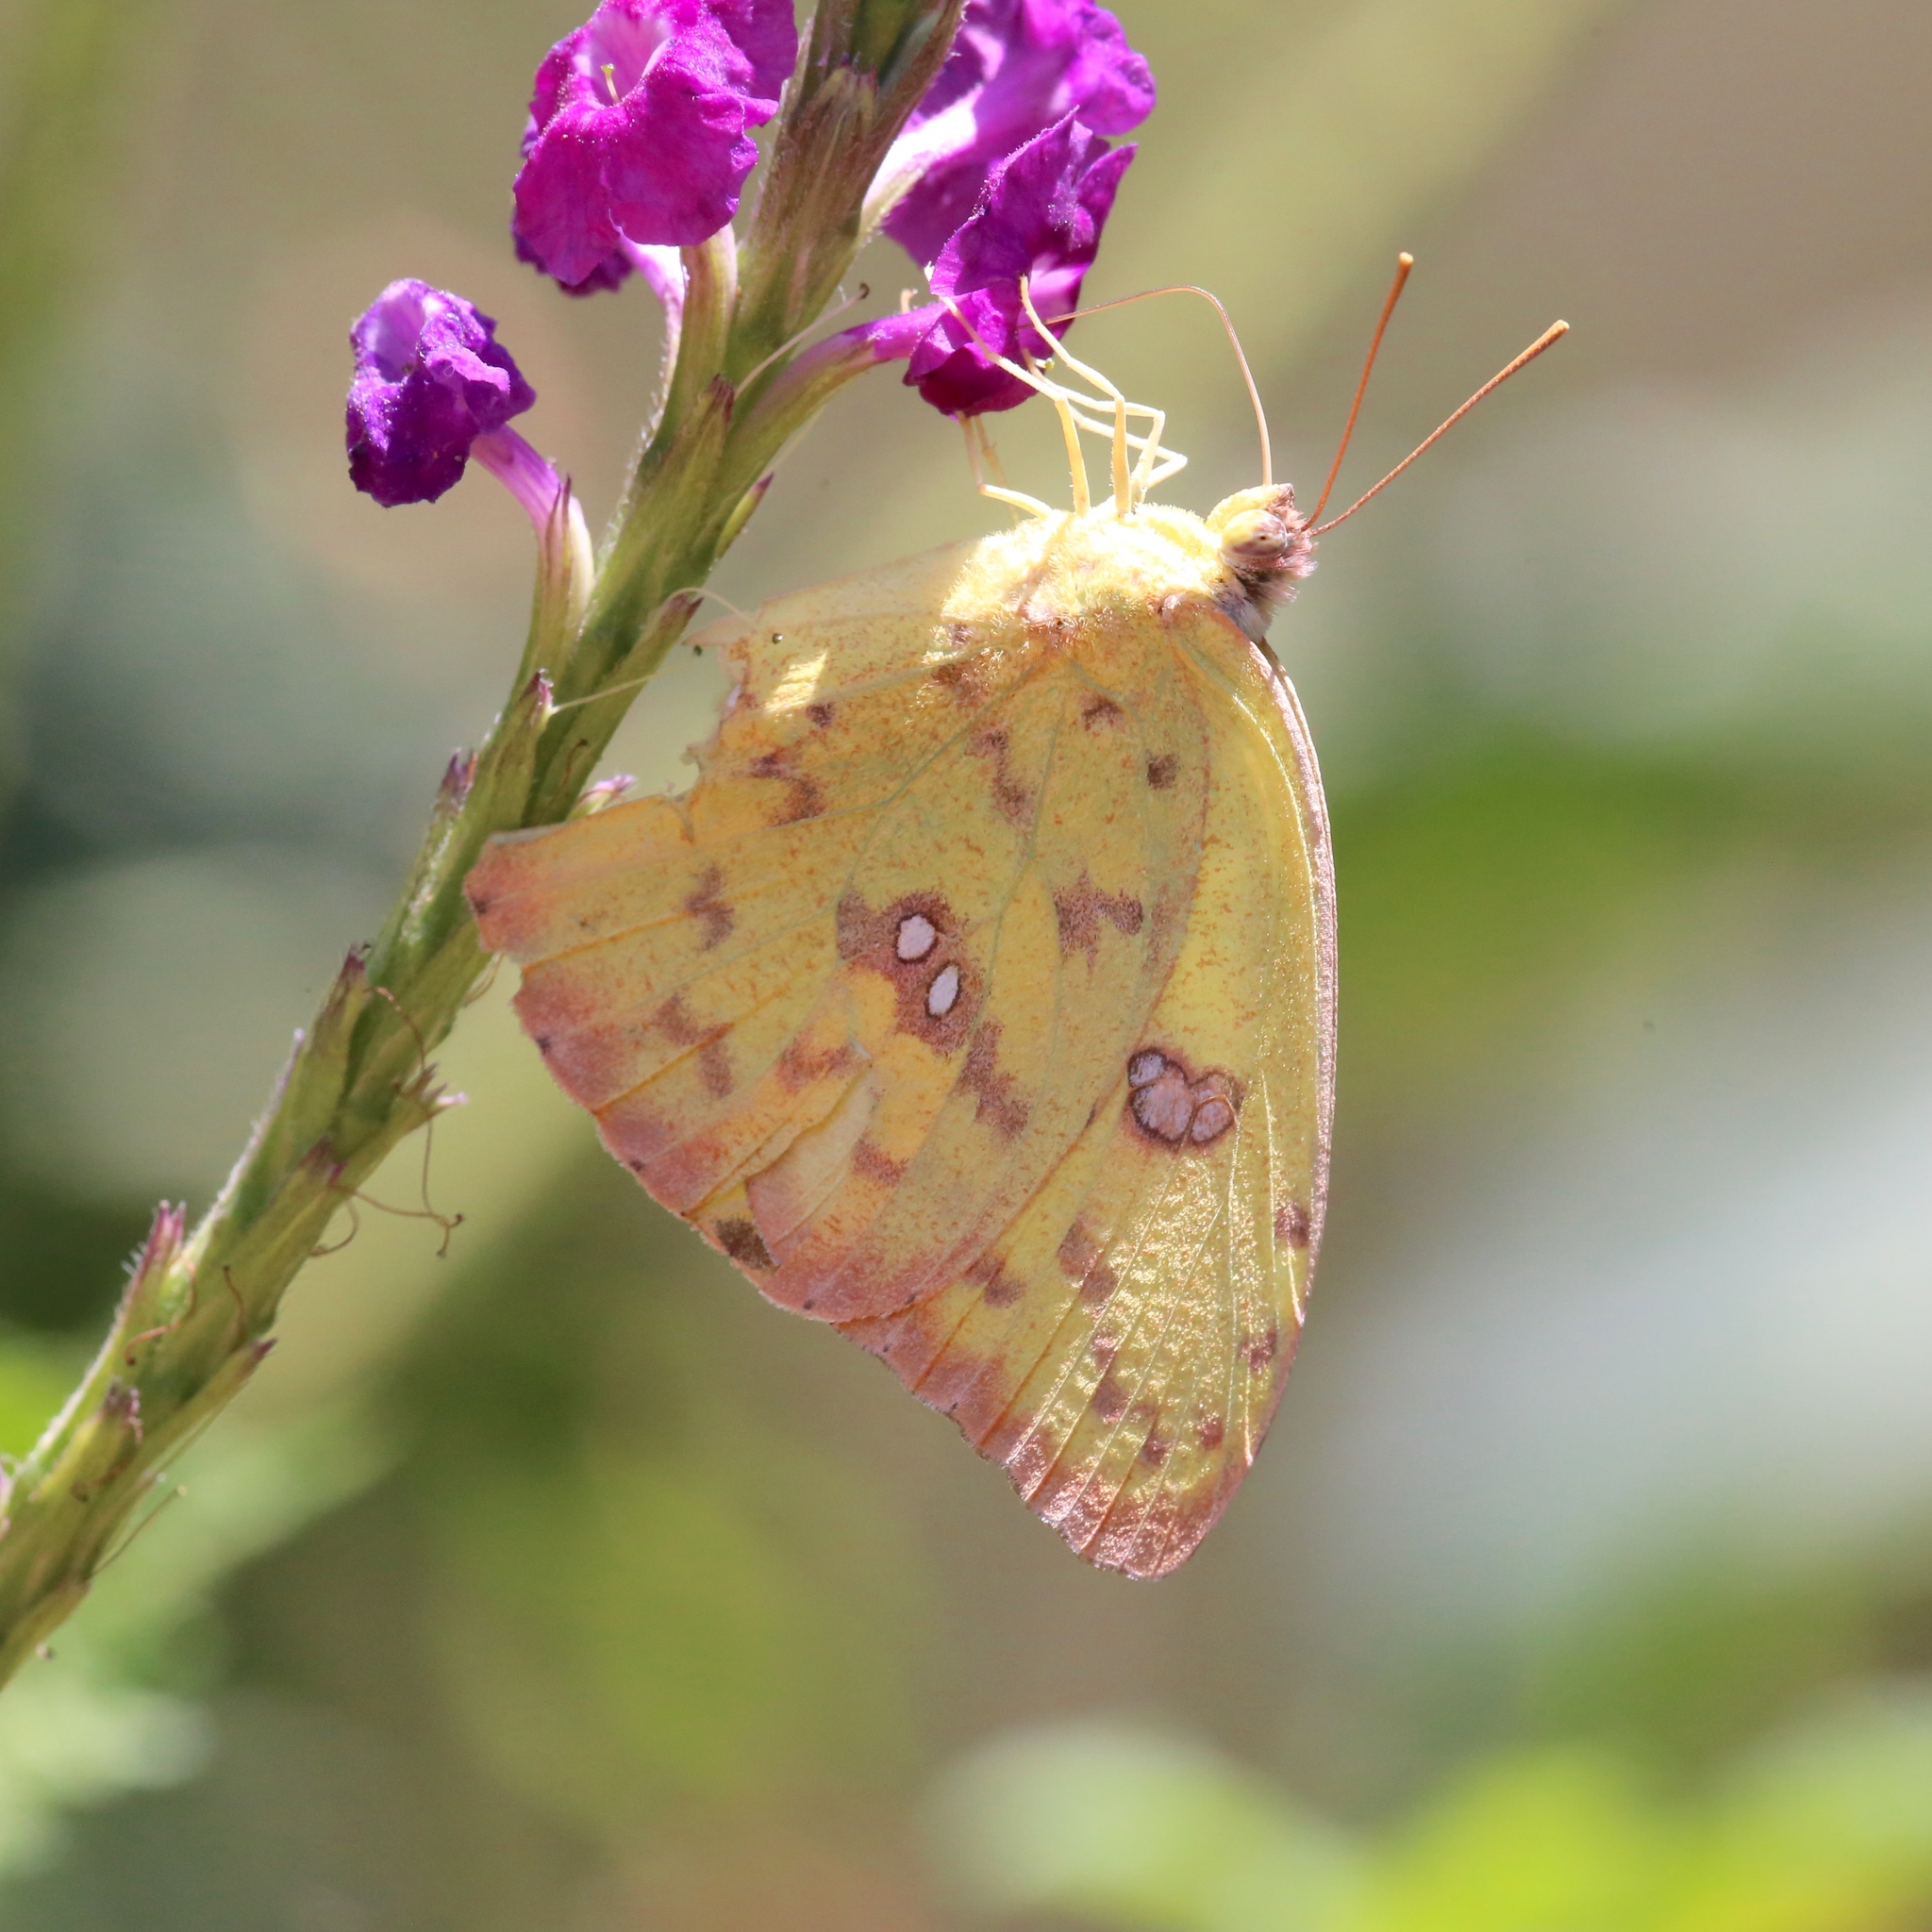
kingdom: Animalia
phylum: Arthropoda
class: Insecta
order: Lepidoptera
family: Pieridae
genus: Phoebis
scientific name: Phoebis sennae
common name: Cloudless sulphur
